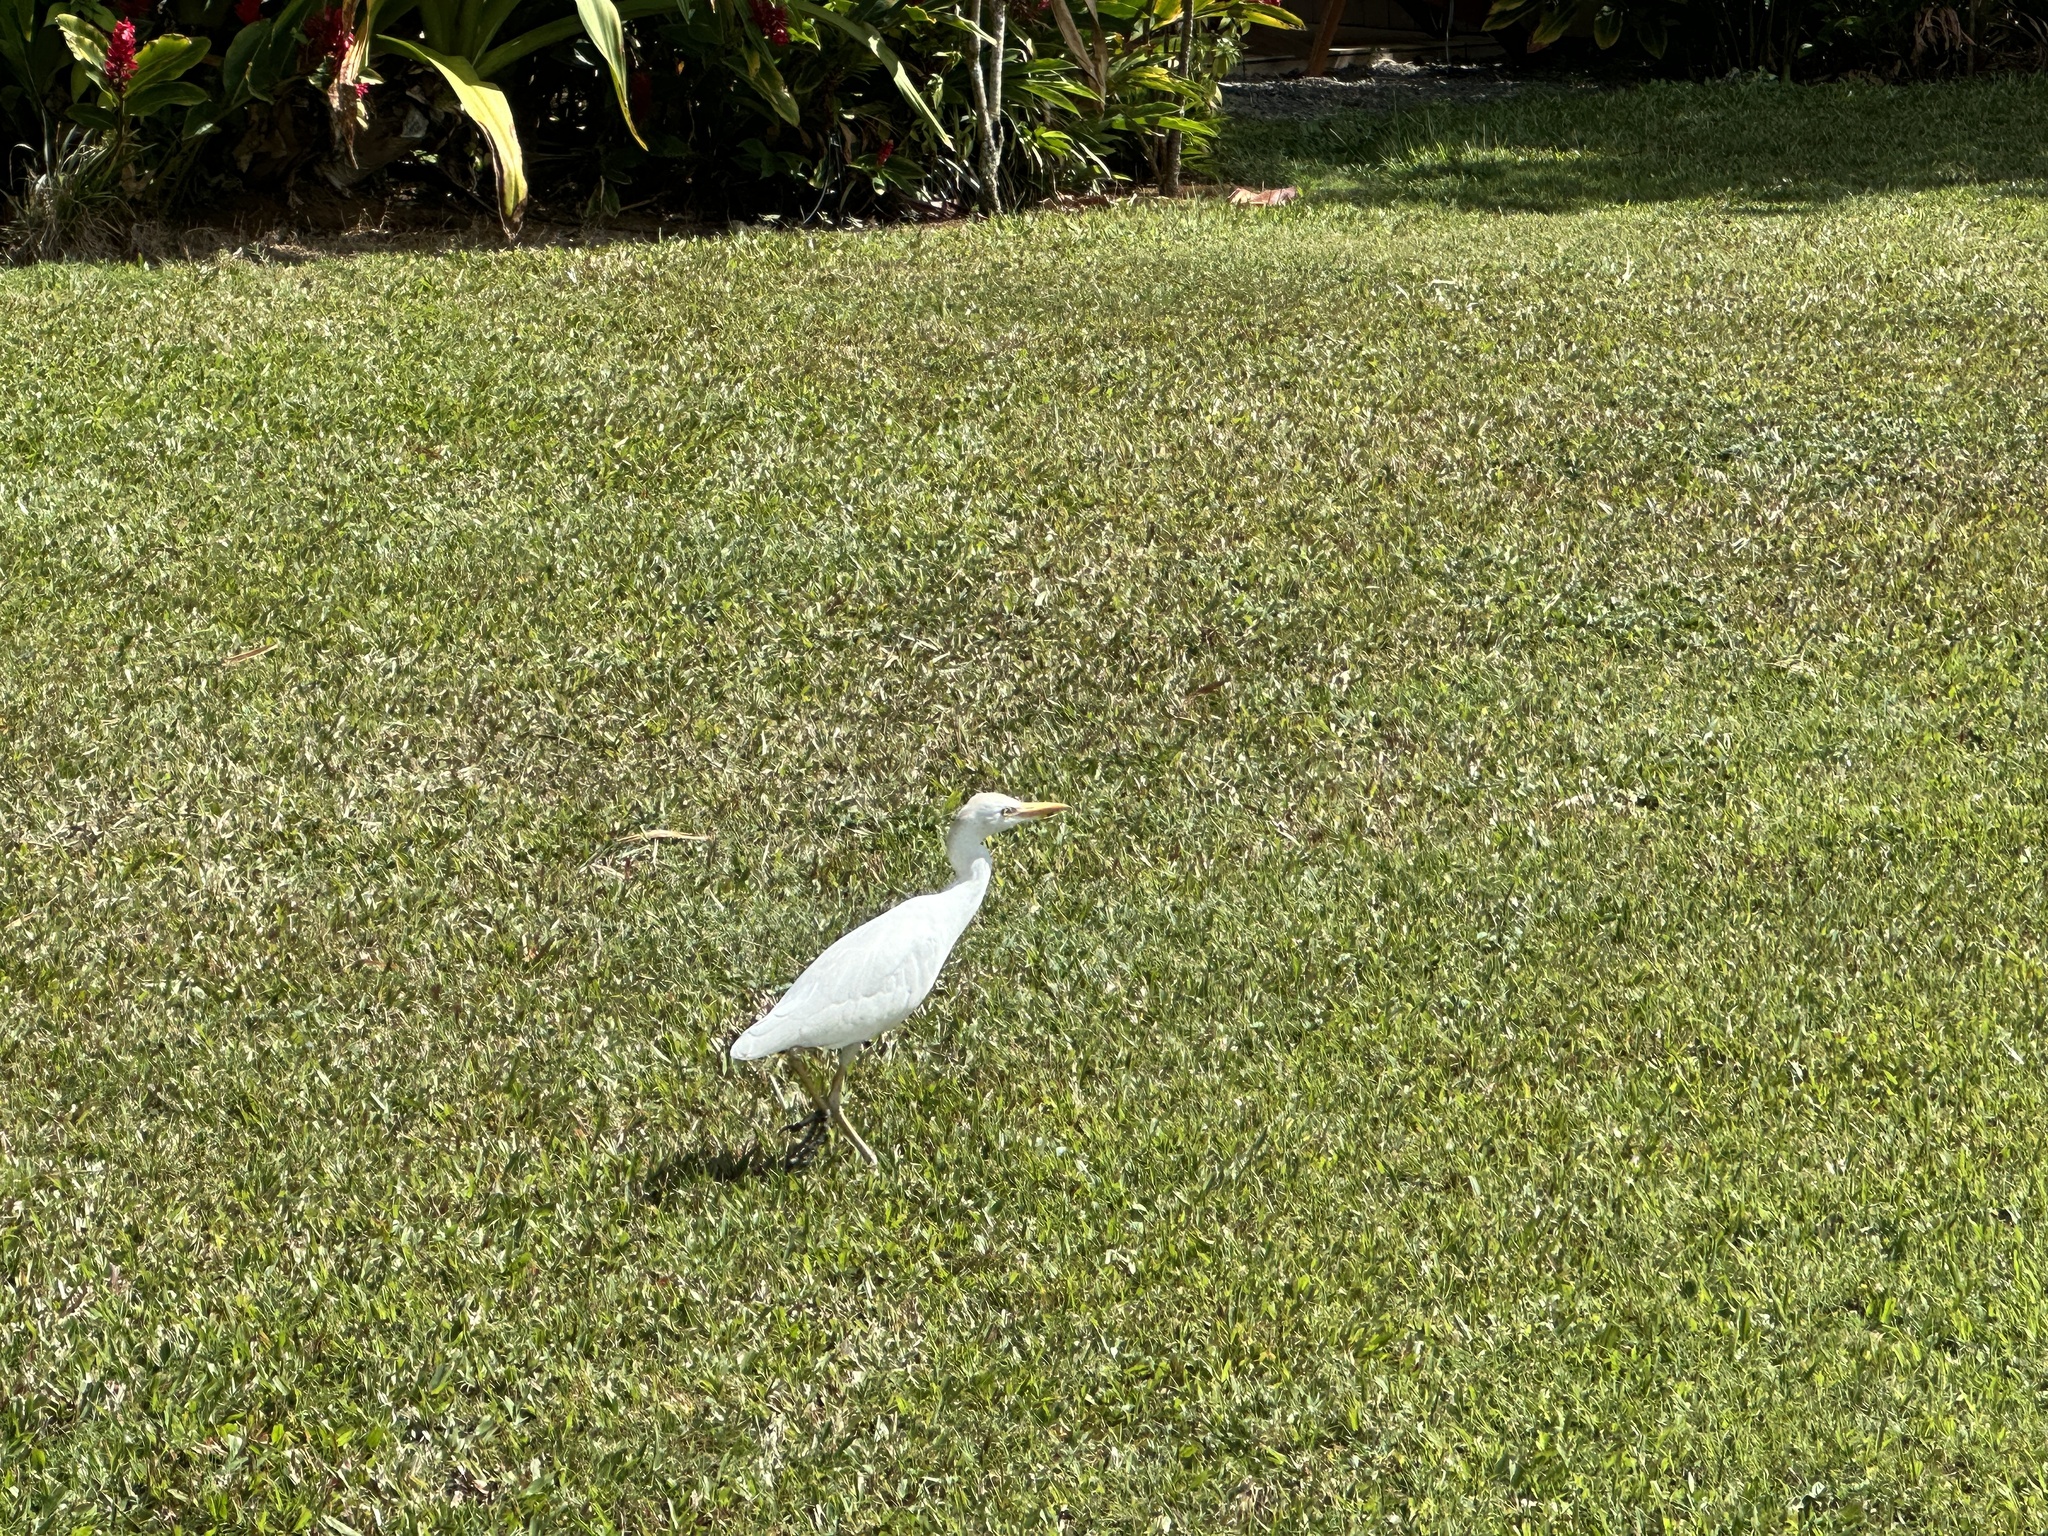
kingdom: Animalia
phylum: Chordata
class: Aves
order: Pelecaniformes
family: Ardeidae
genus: Bubulcus
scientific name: Bubulcus ibis
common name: Cattle egret
